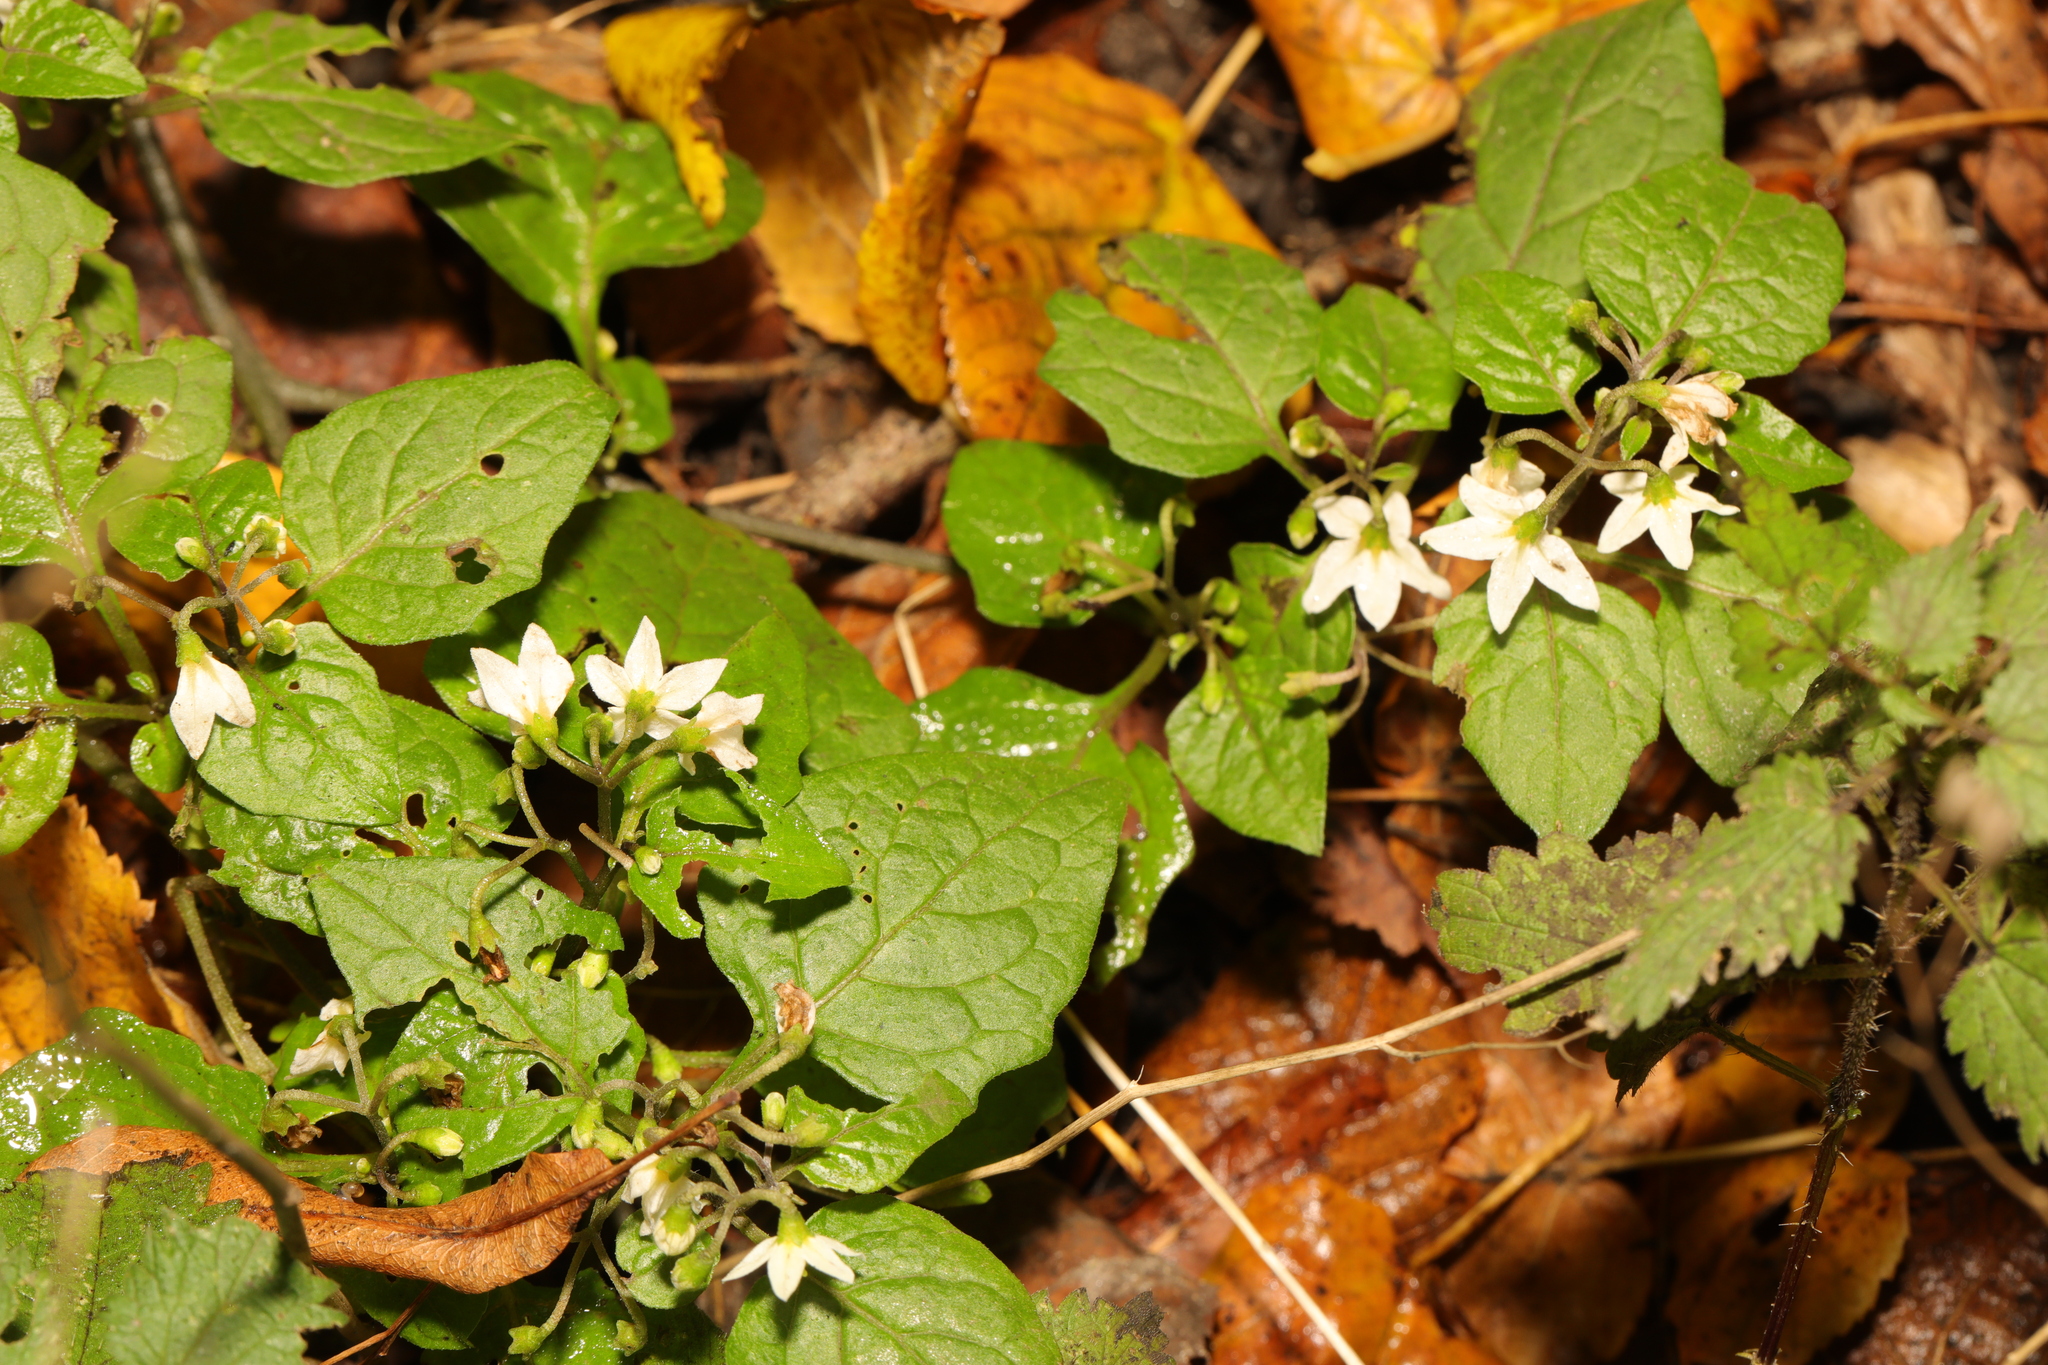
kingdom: Plantae
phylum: Tracheophyta
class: Magnoliopsida
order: Solanales
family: Solanaceae
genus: Solanum
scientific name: Solanum nigrum
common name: Black nightshade
